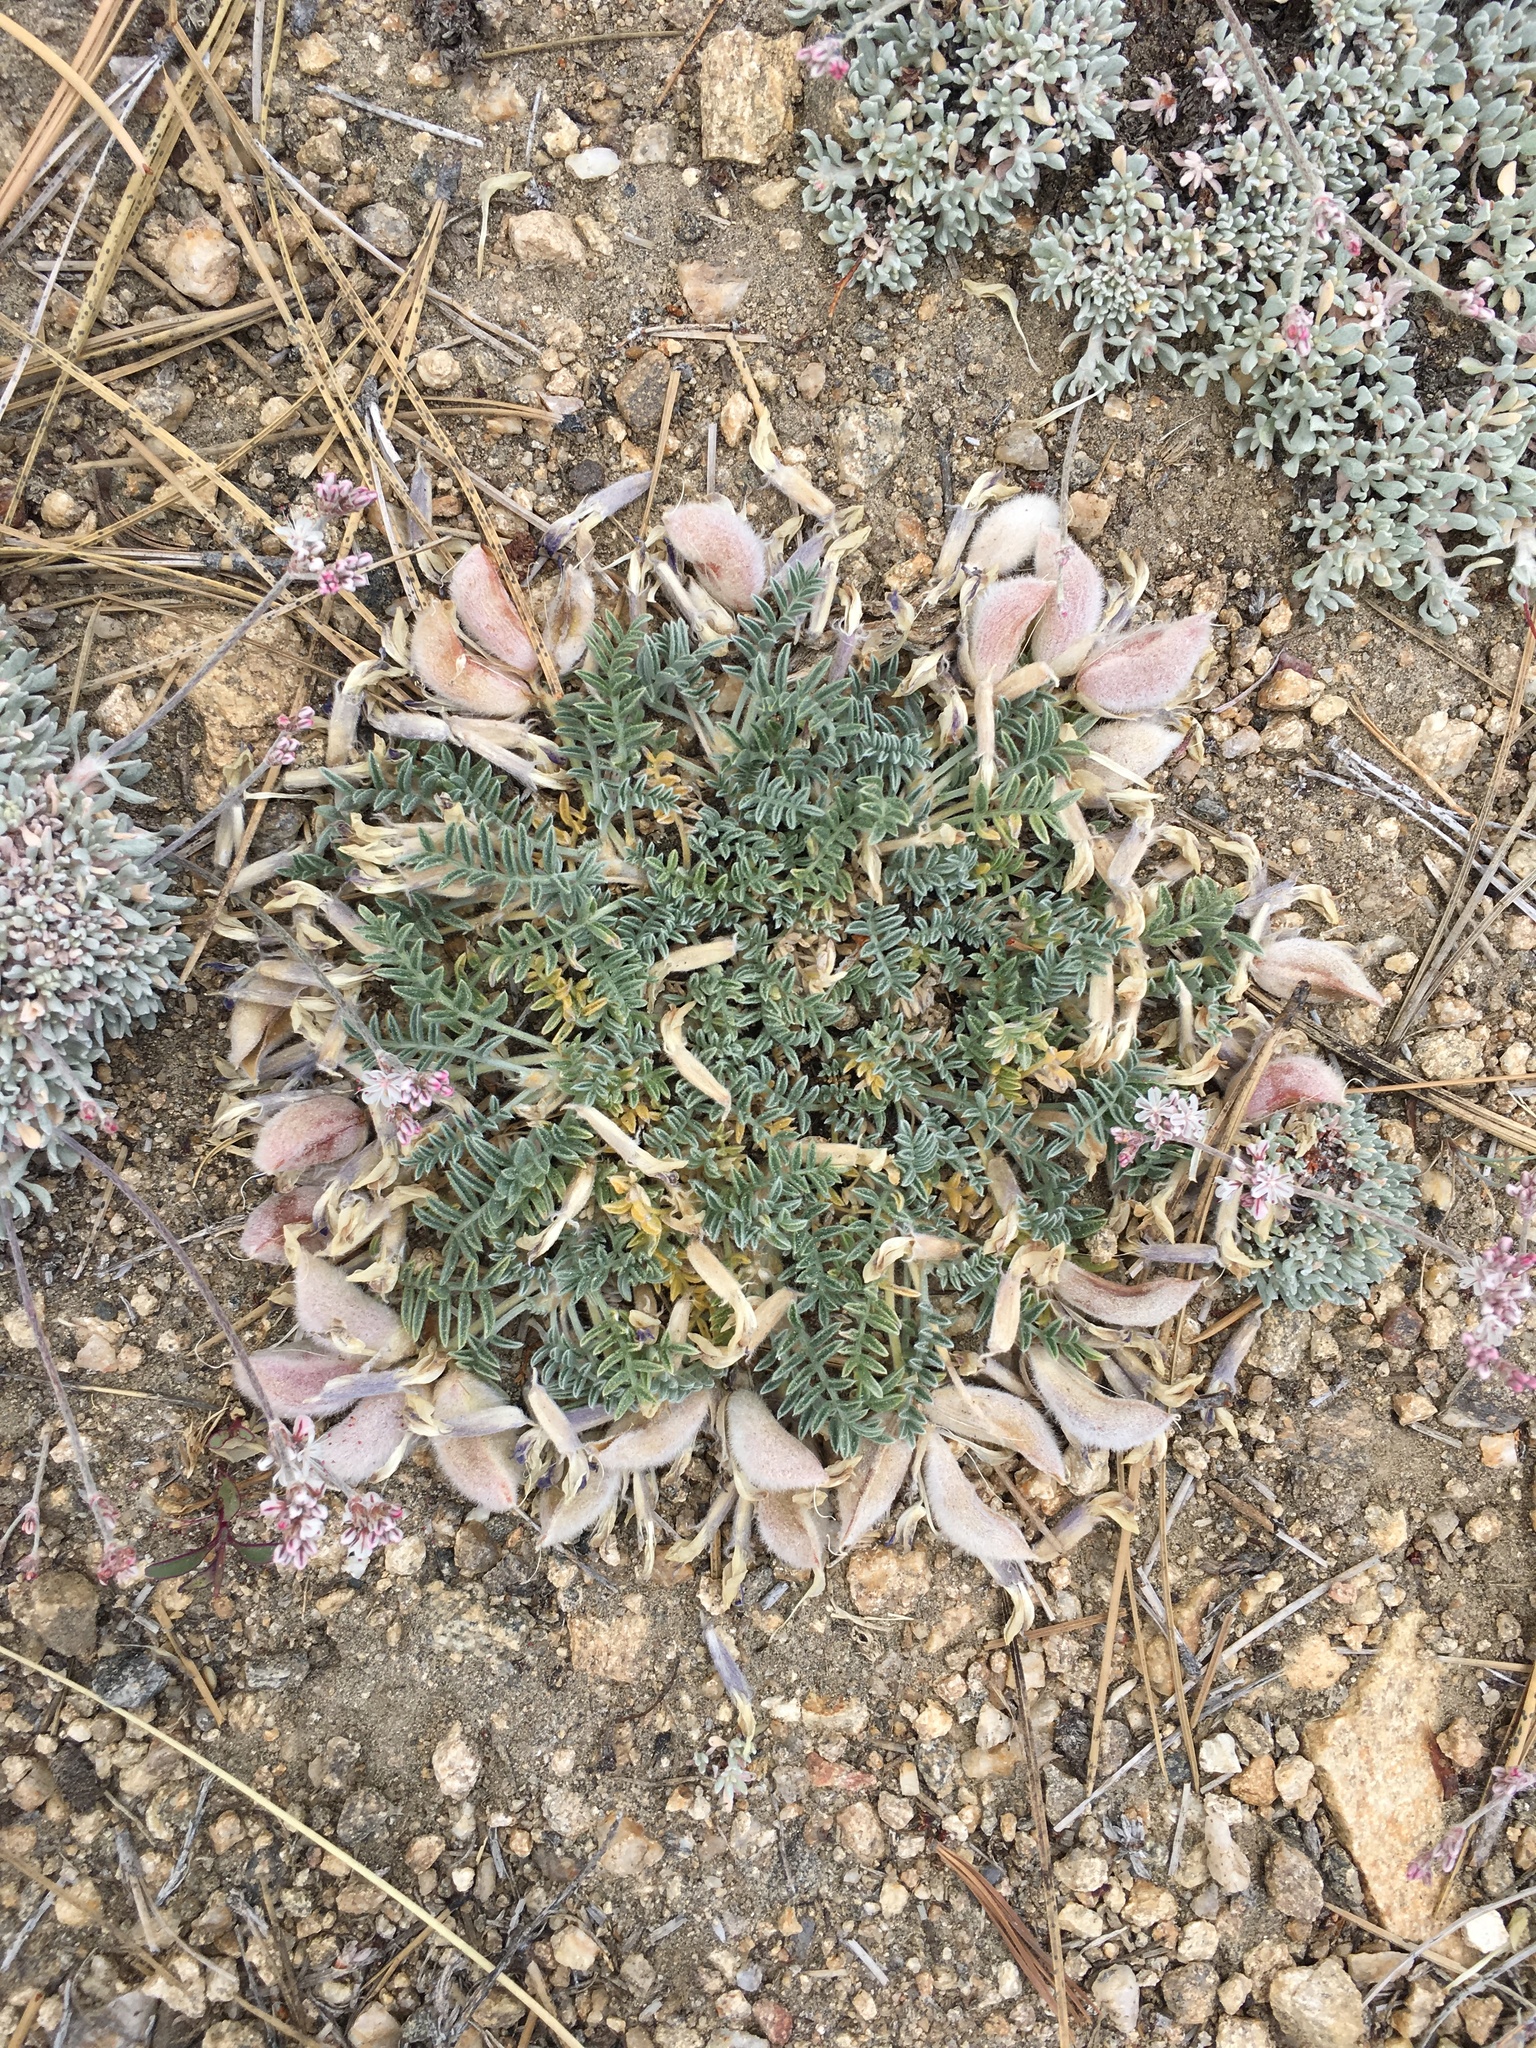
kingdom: Plantae
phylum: Tracheophyta
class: Magnoliopsida
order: Fabales
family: Fabaceae
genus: Astragalus
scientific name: Astragalus purshii
